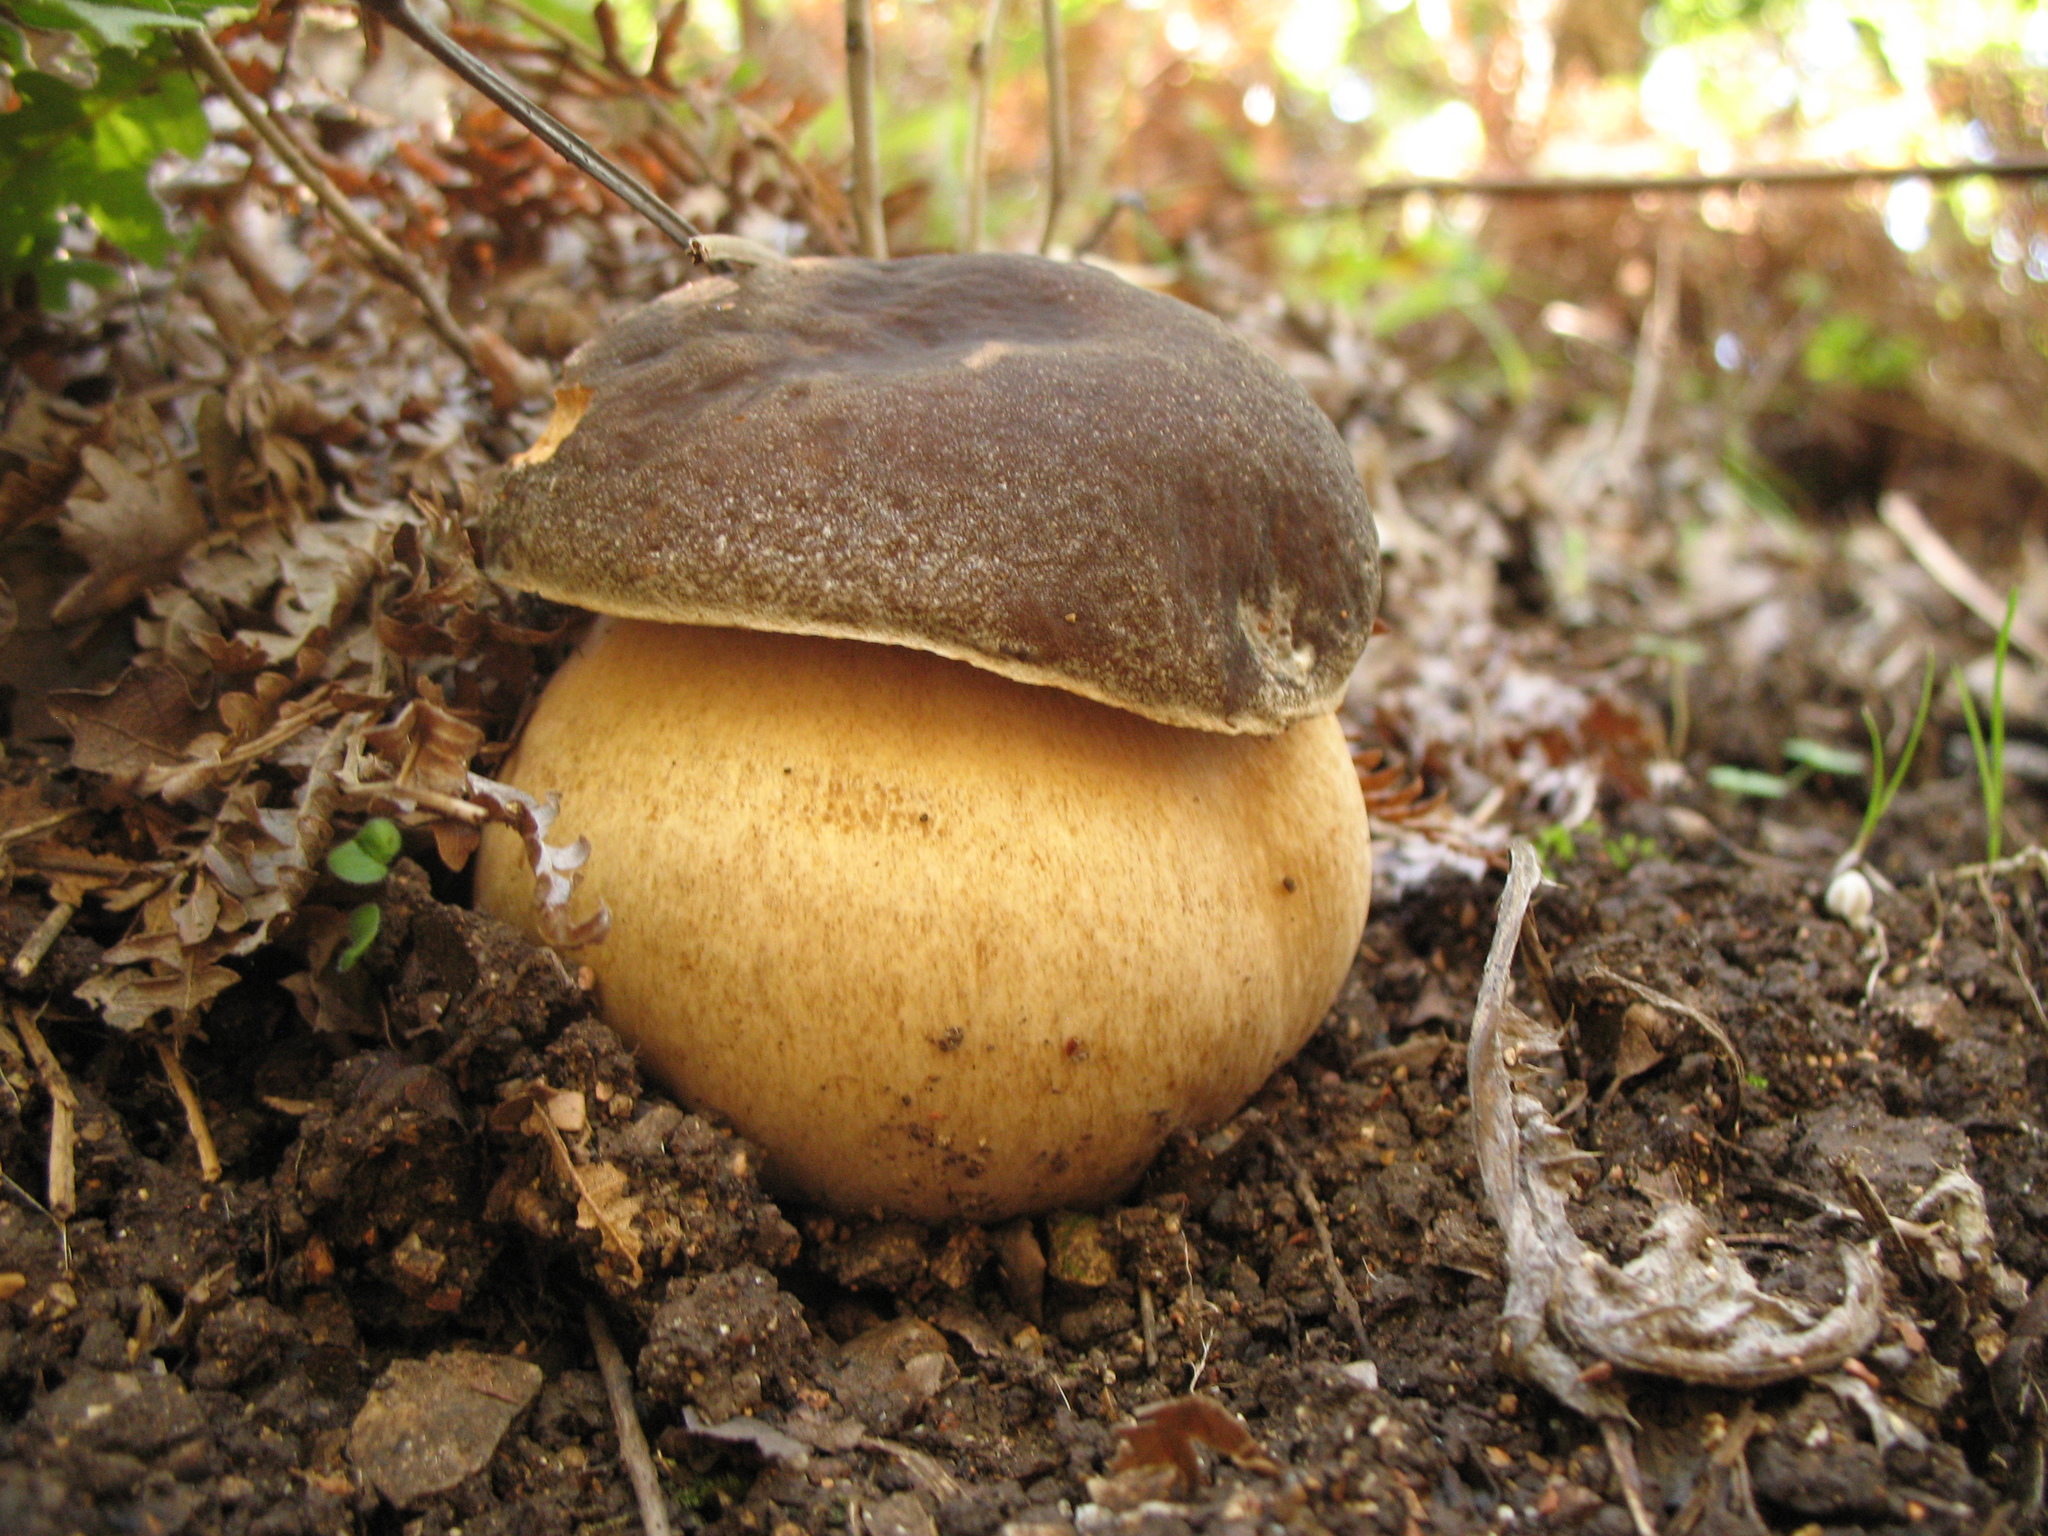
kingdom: Fungi
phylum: Basidiomycota
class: Agaricomycetes
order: Boletales
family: Boletaceae
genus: Boletus
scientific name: Boletus aereus
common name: Bronze bolete
